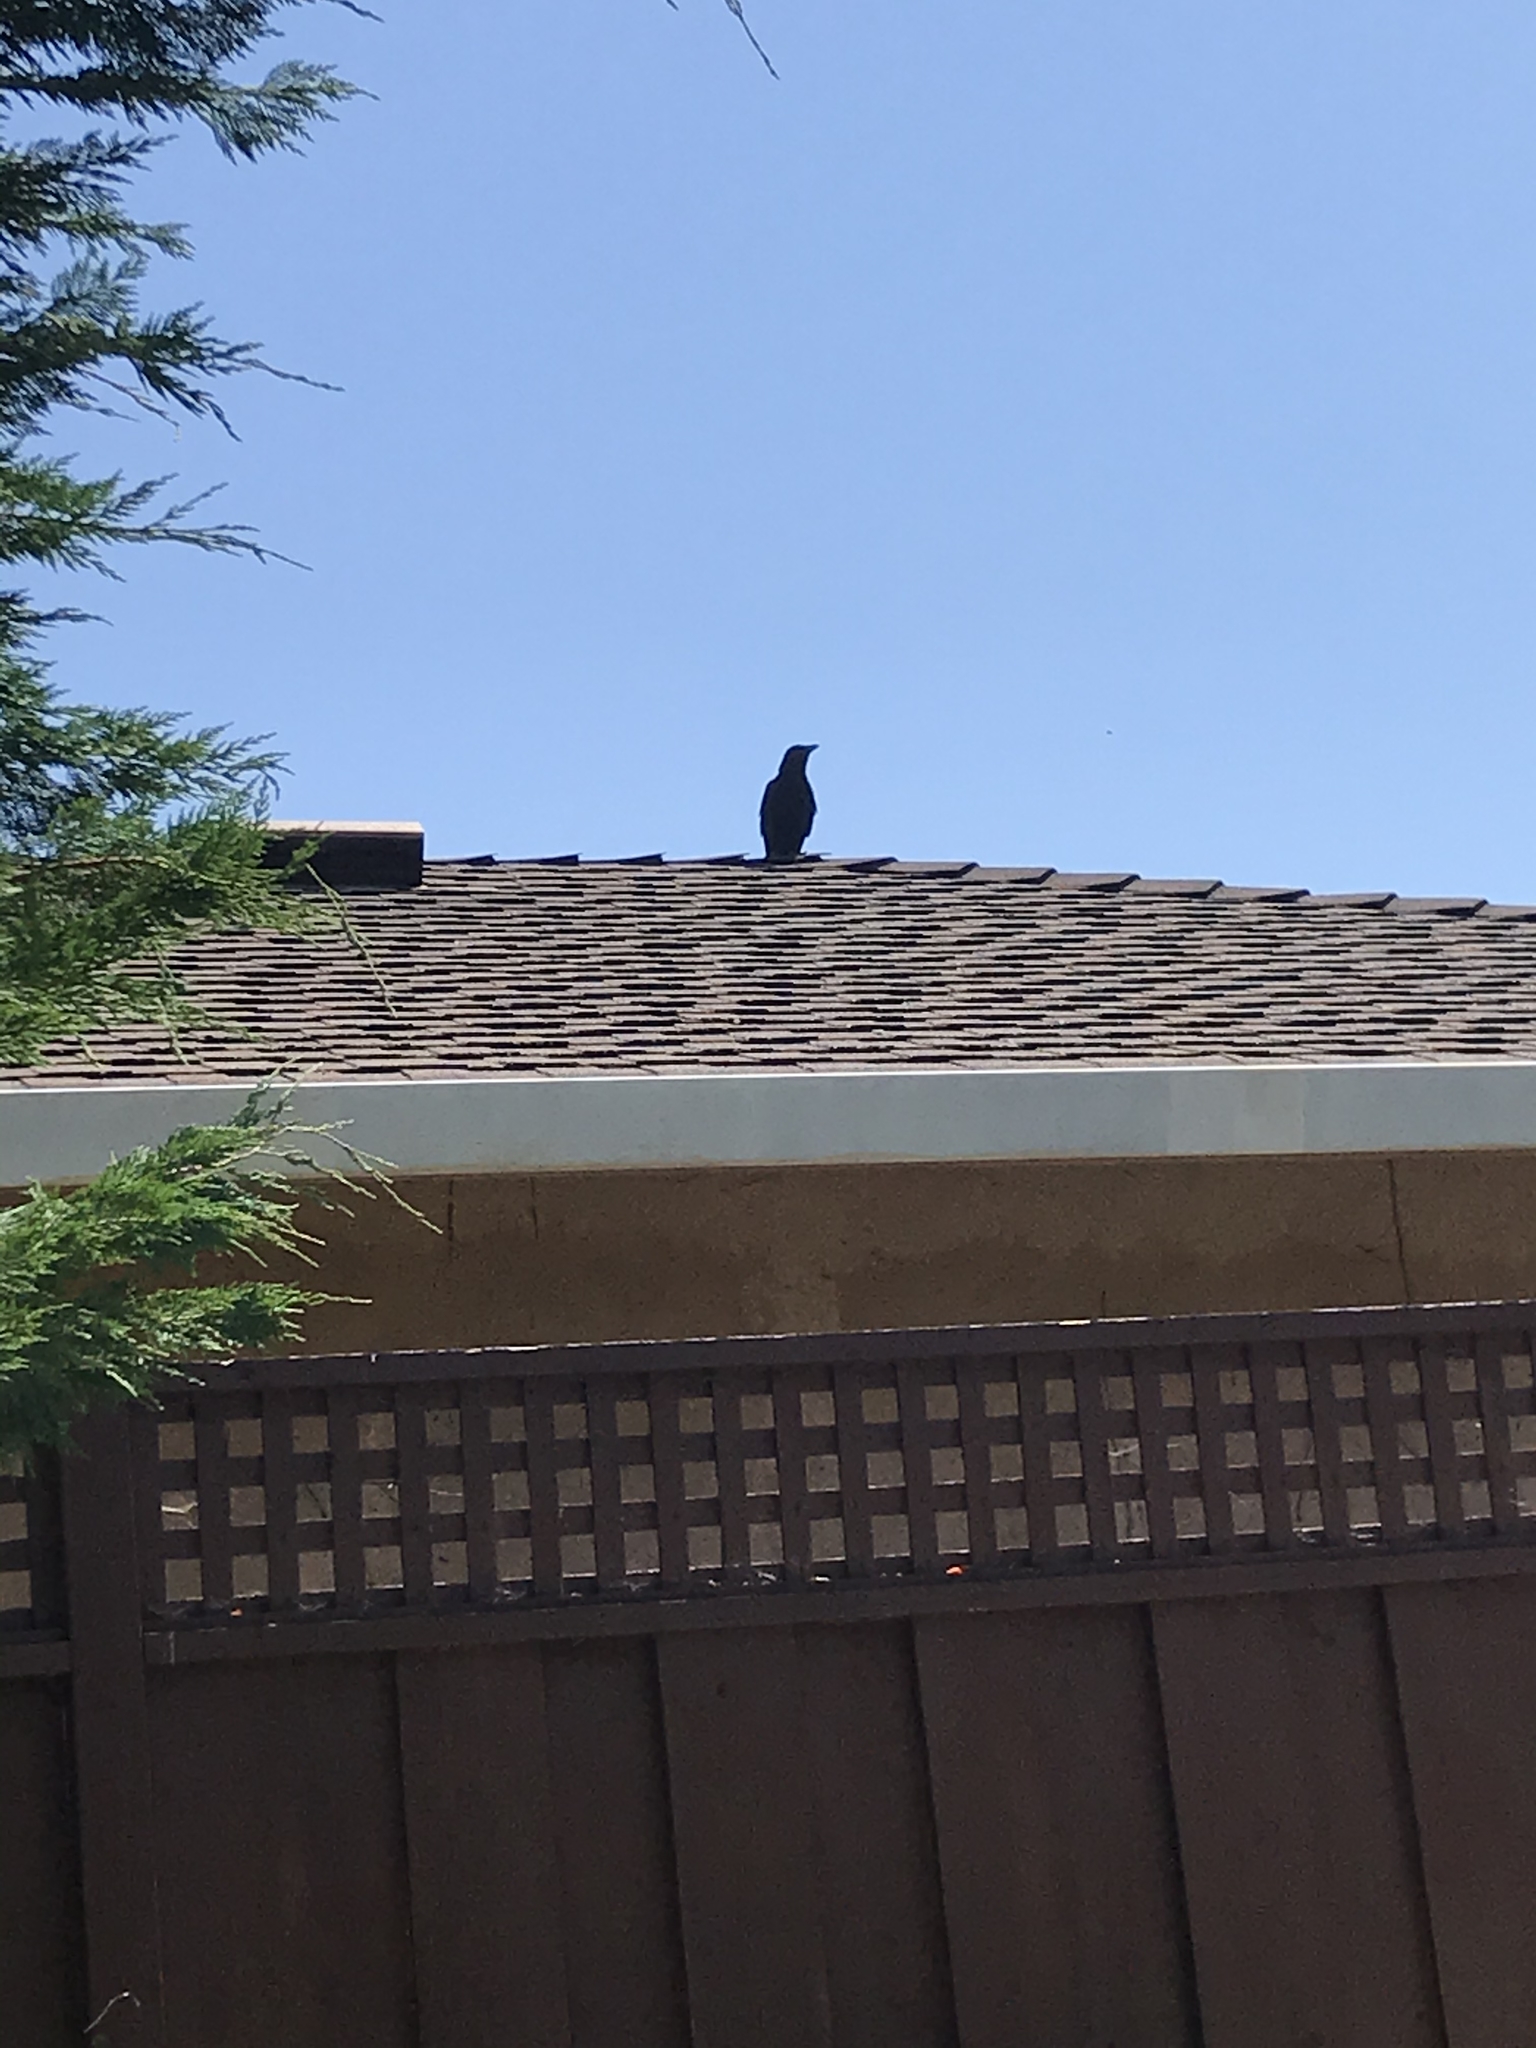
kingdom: Animalia
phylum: Chordata
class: Aves
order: Passeriformes
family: Corvidae
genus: Corvus
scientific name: Corvus brachyrhynchos
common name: American crow
